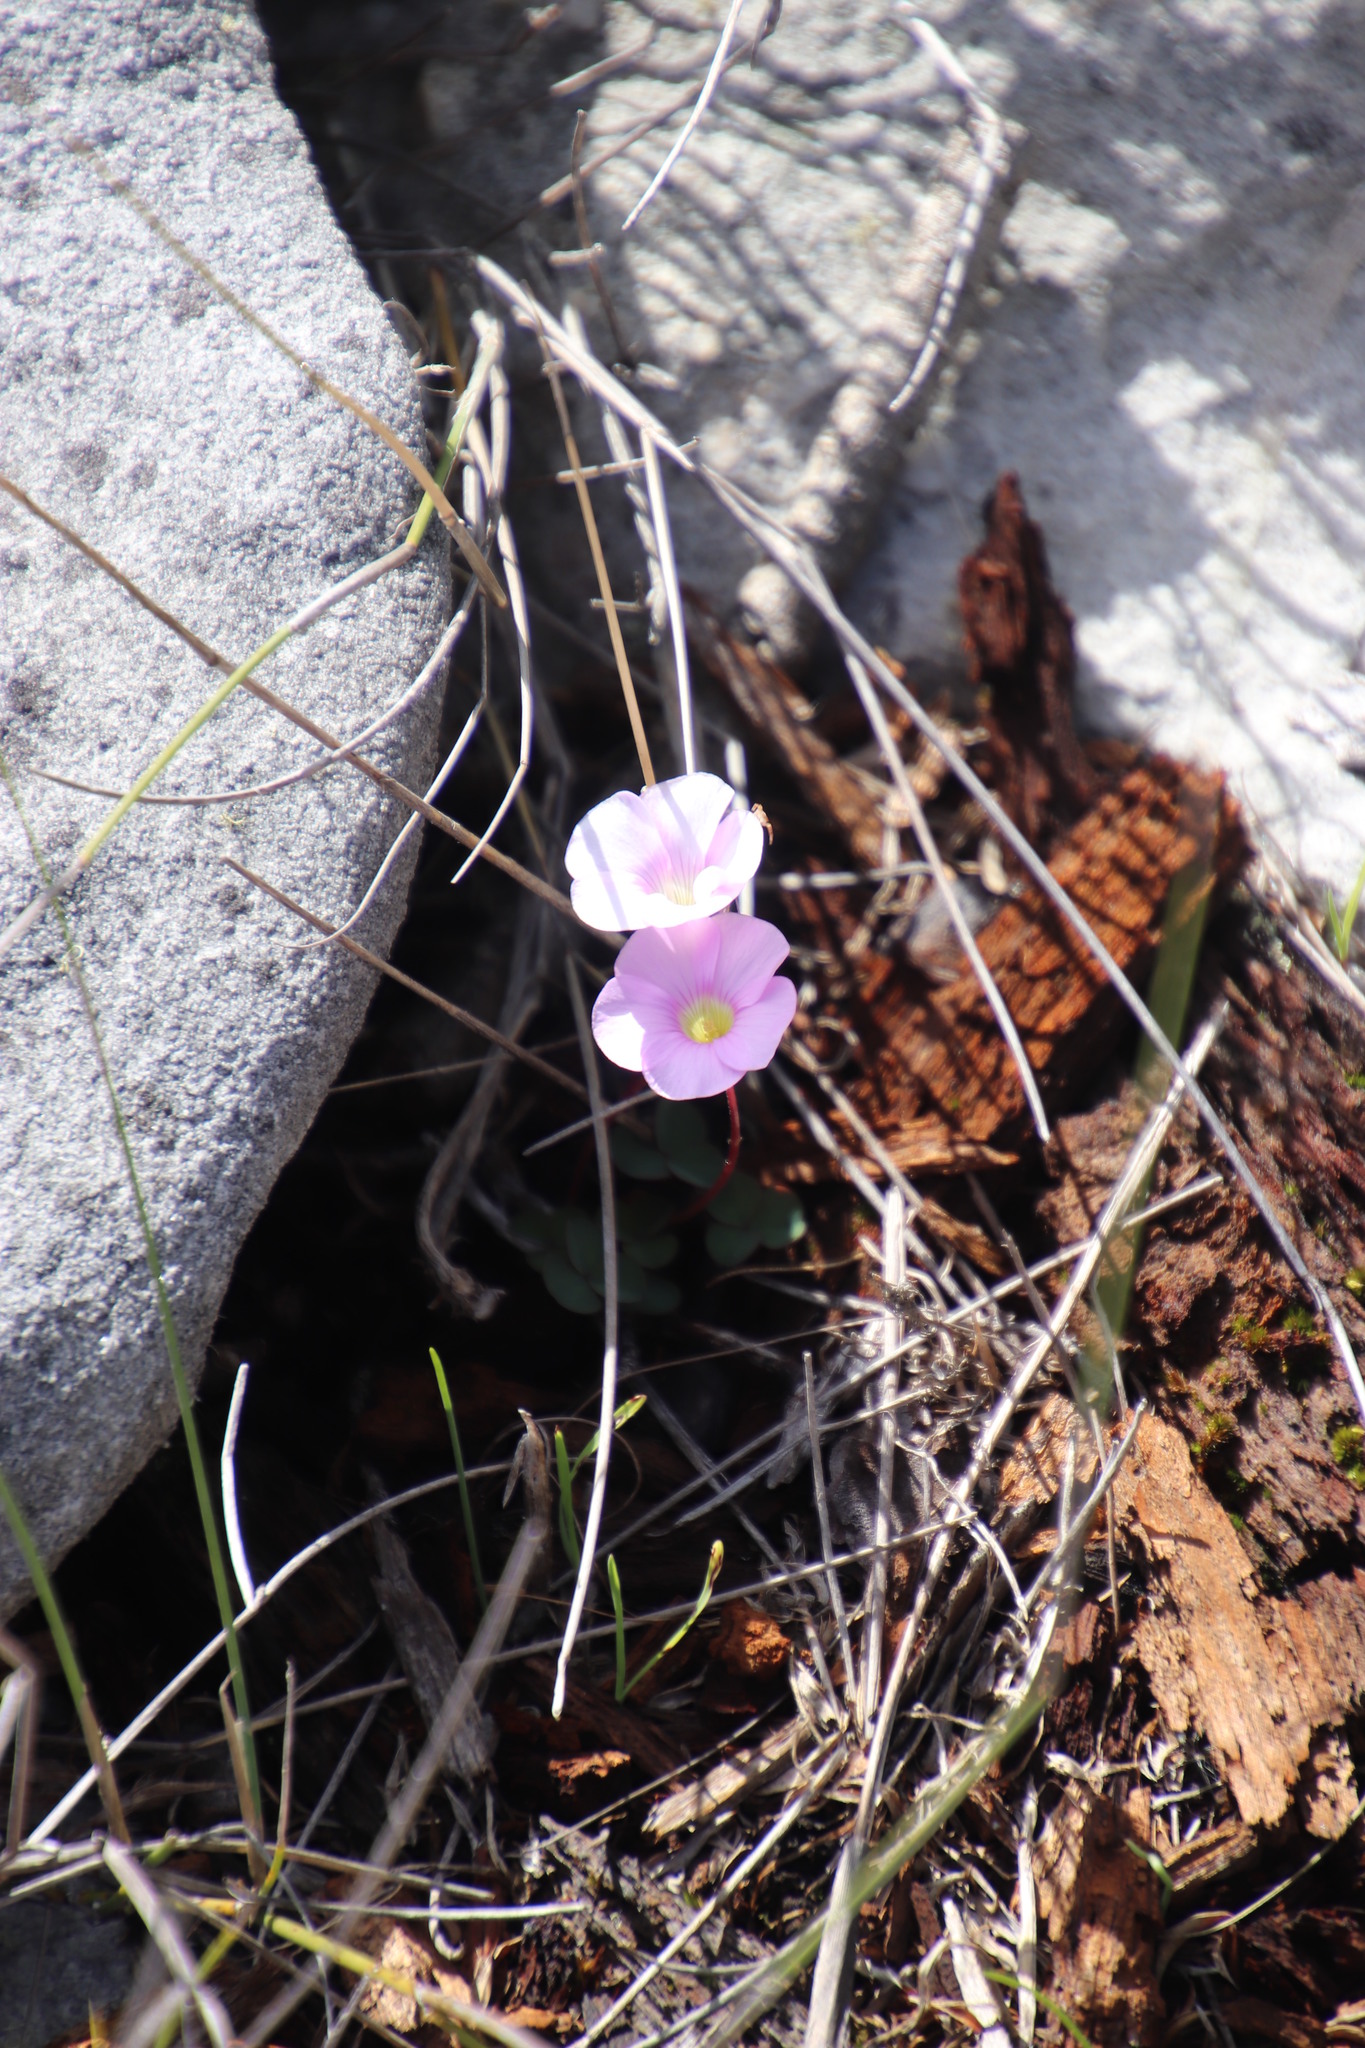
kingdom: Plantae
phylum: Tracheophyta
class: Magnoliopsida
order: Oxalidales
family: Oxalidaceae
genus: Oxalis
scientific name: Oxalis commutata
